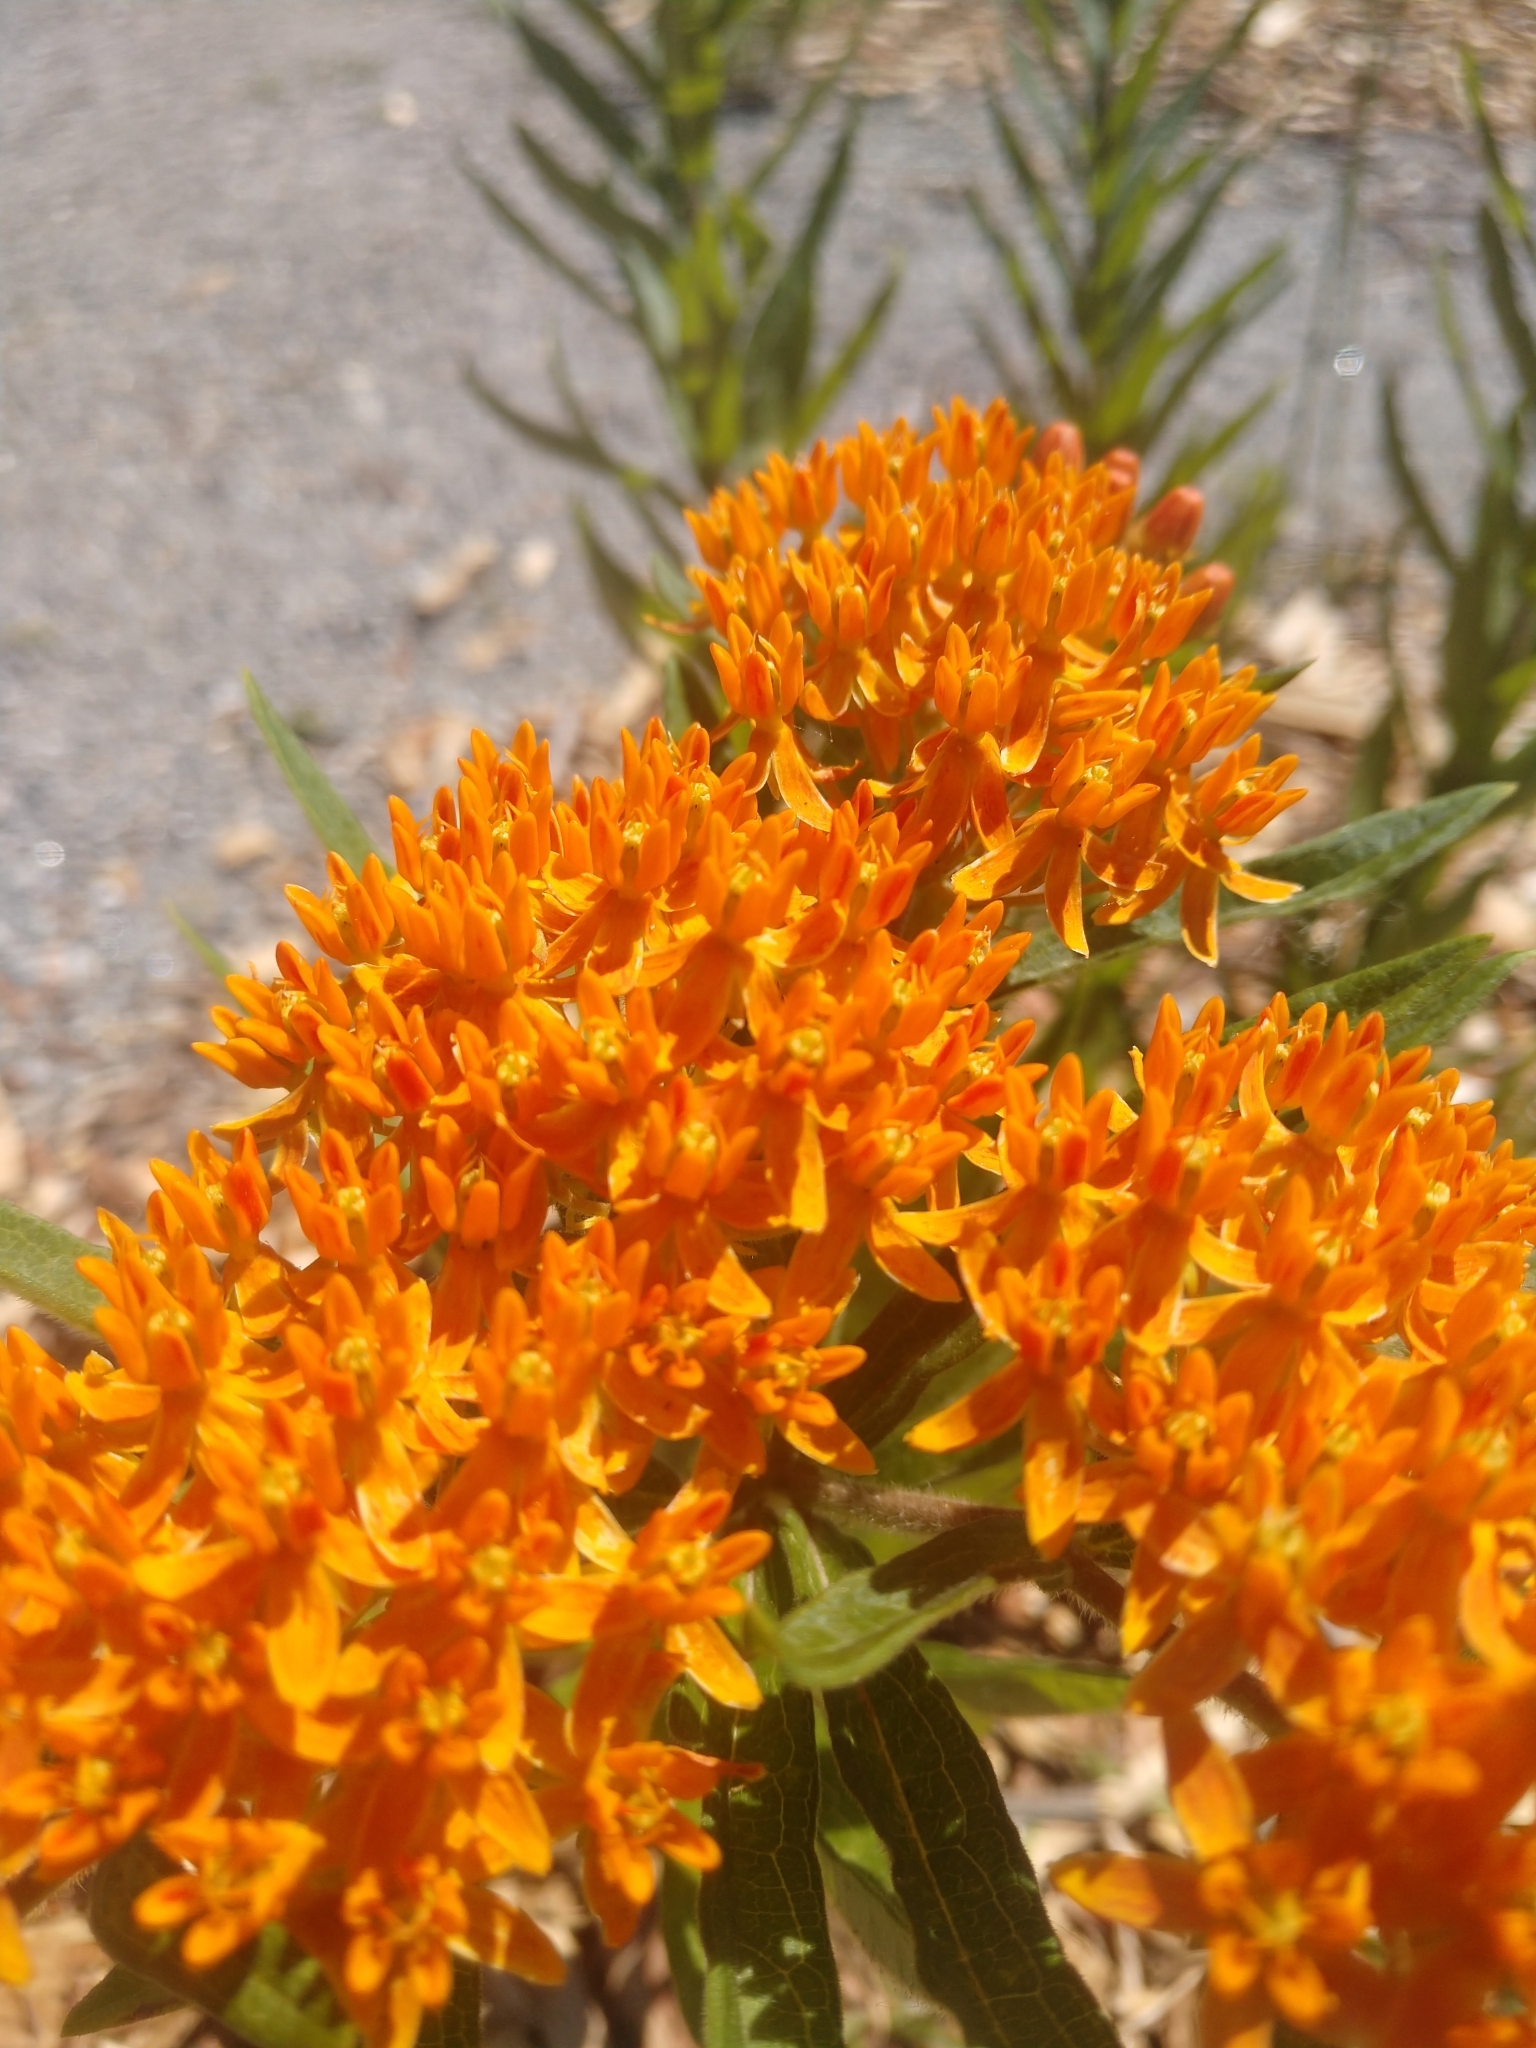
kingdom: Plantae
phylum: Tracheophyta
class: Magnoliopsida
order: Gentianales
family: Apocynaceae
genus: Asclepias
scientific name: Asclepias tuberosa
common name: Butterfly milkweed
